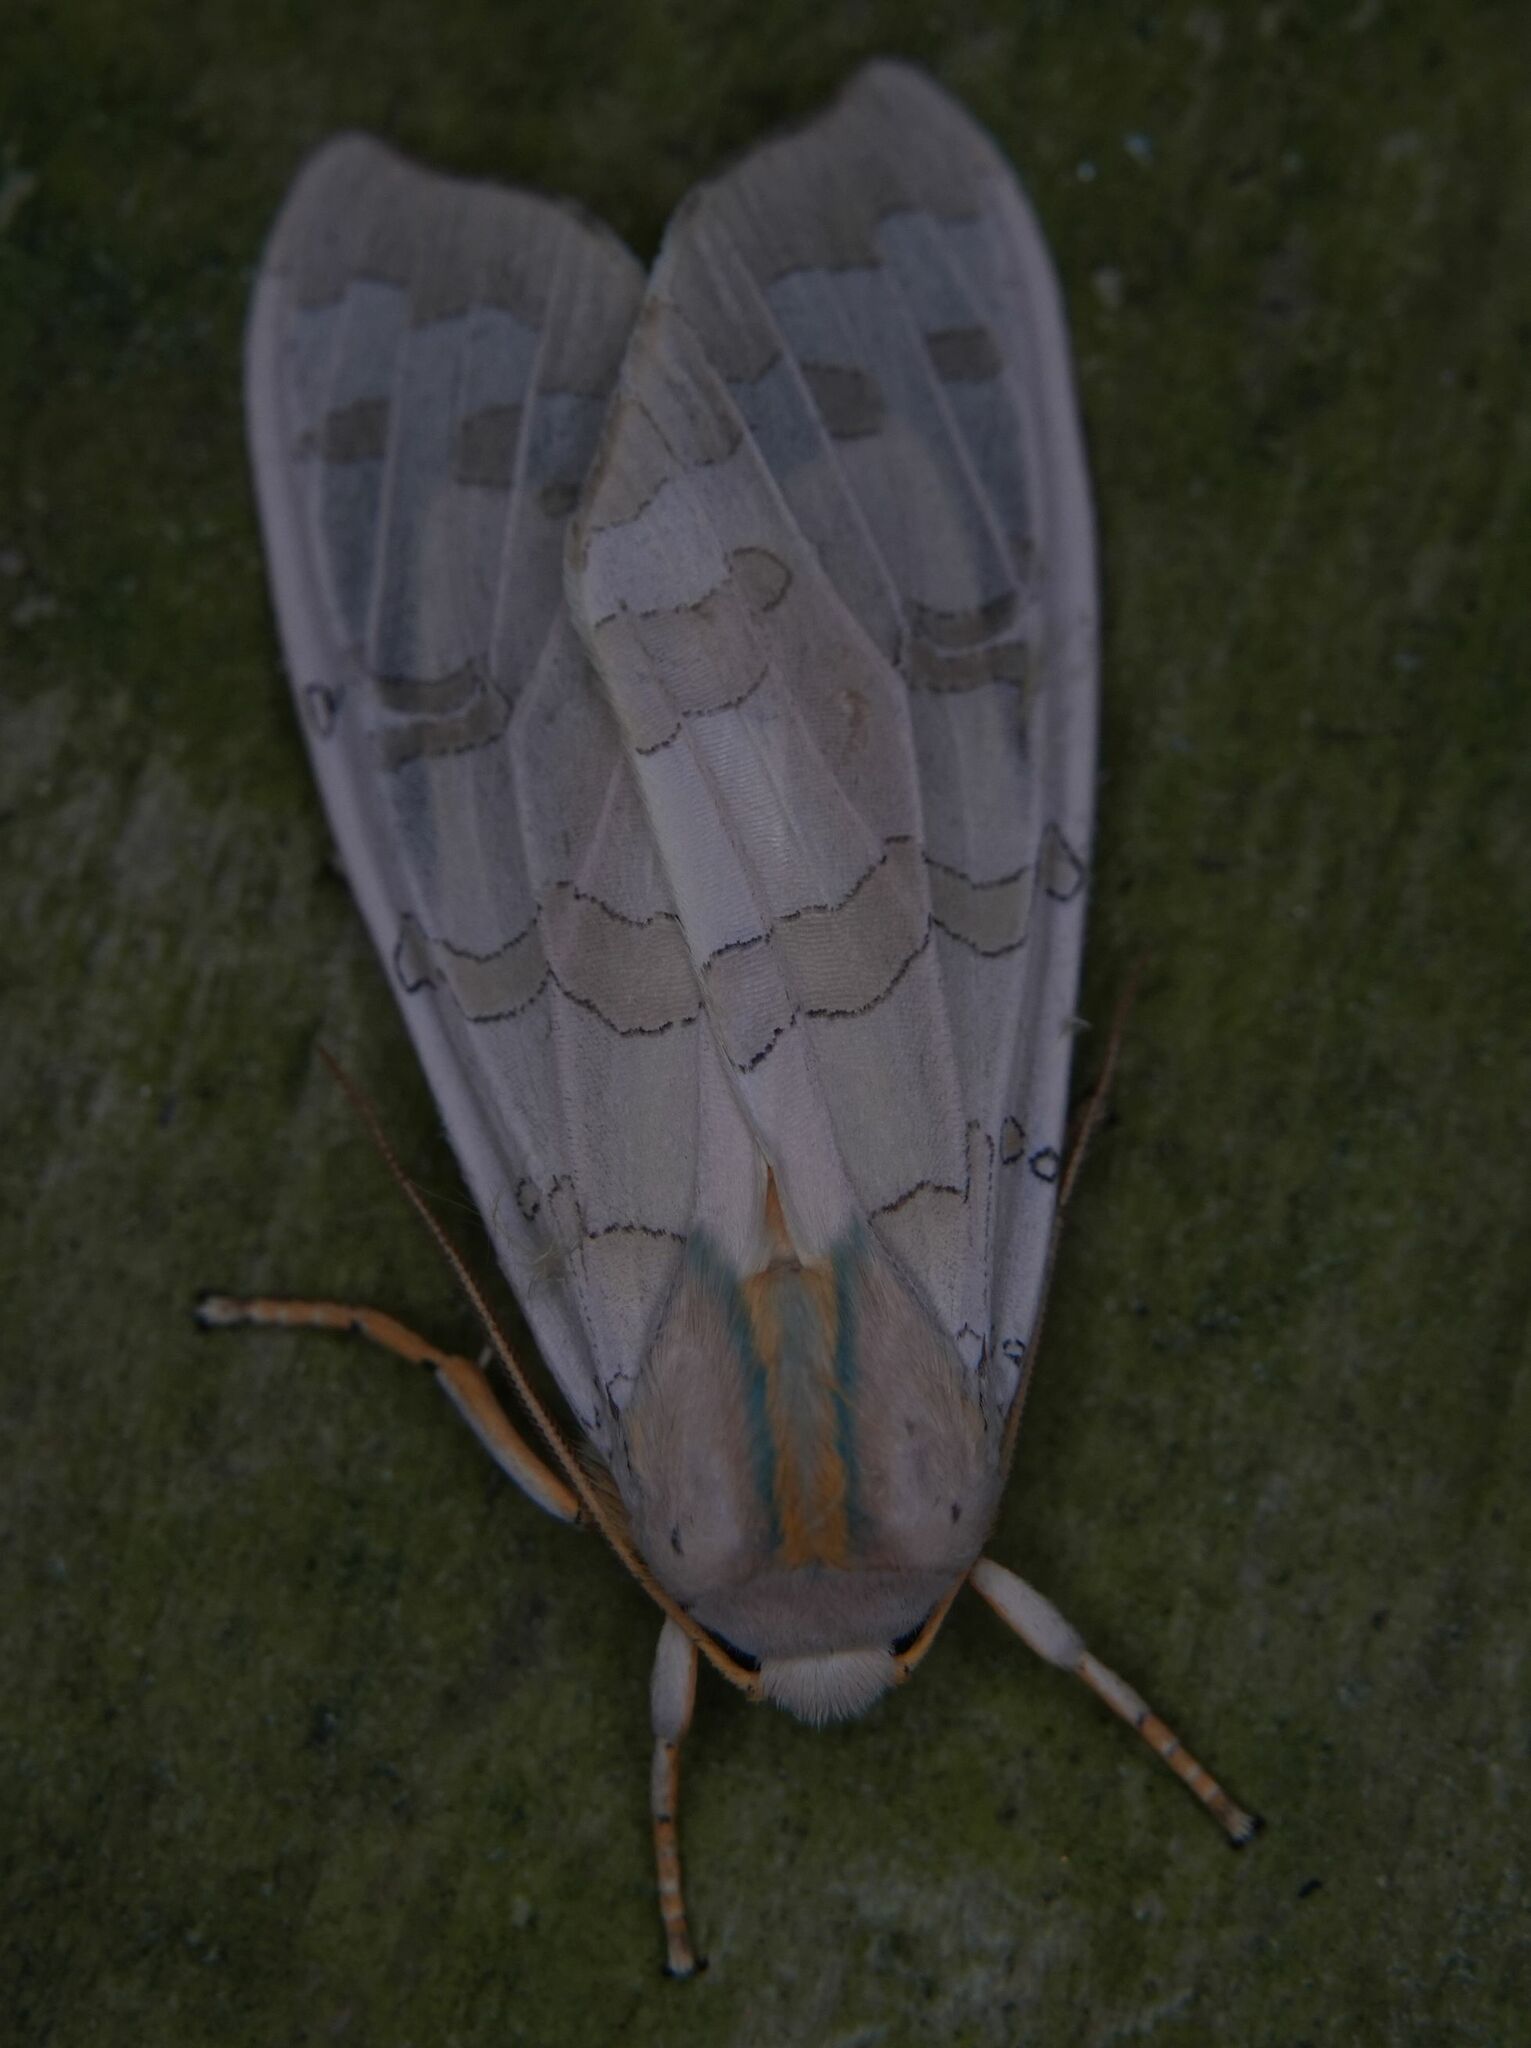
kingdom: Animalia
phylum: Arthropoda
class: Insecta
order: Lepidoptera
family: Erebidae
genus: Halysidota
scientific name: Halysidota tessellaris
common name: Banded tussock moth
